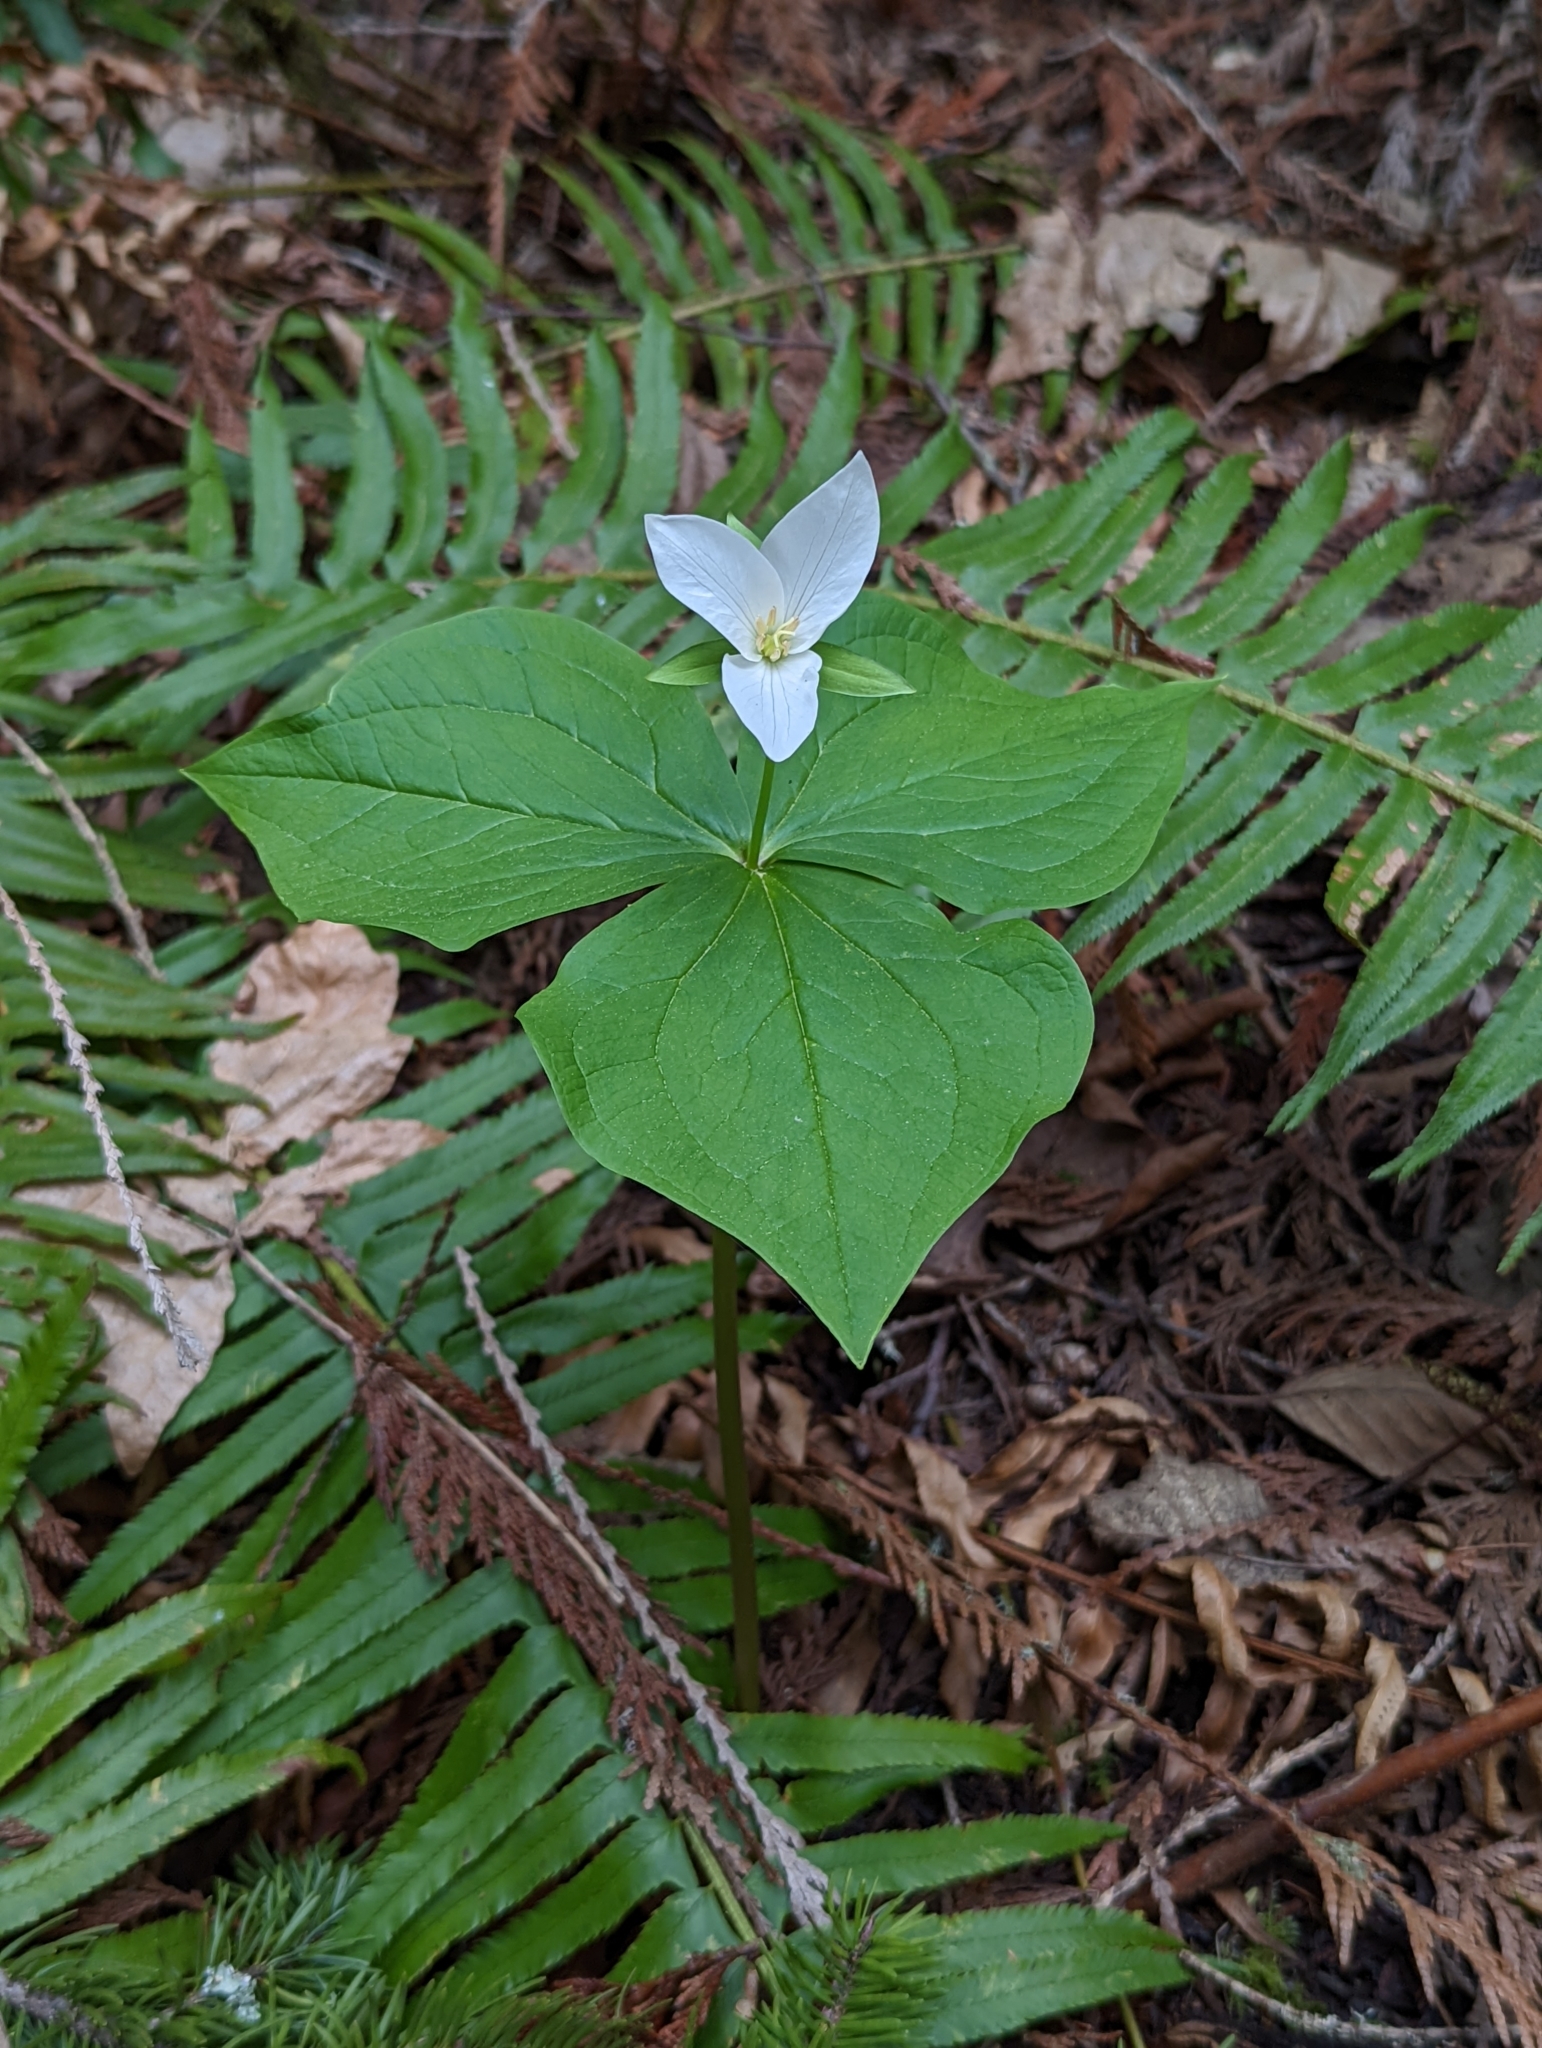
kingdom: Plantae
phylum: Tracheophyta
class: Liliopsida
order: Liliales
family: Melanthiaceae
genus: Trillium
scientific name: Trillium ovatum
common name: Pacific trillium
